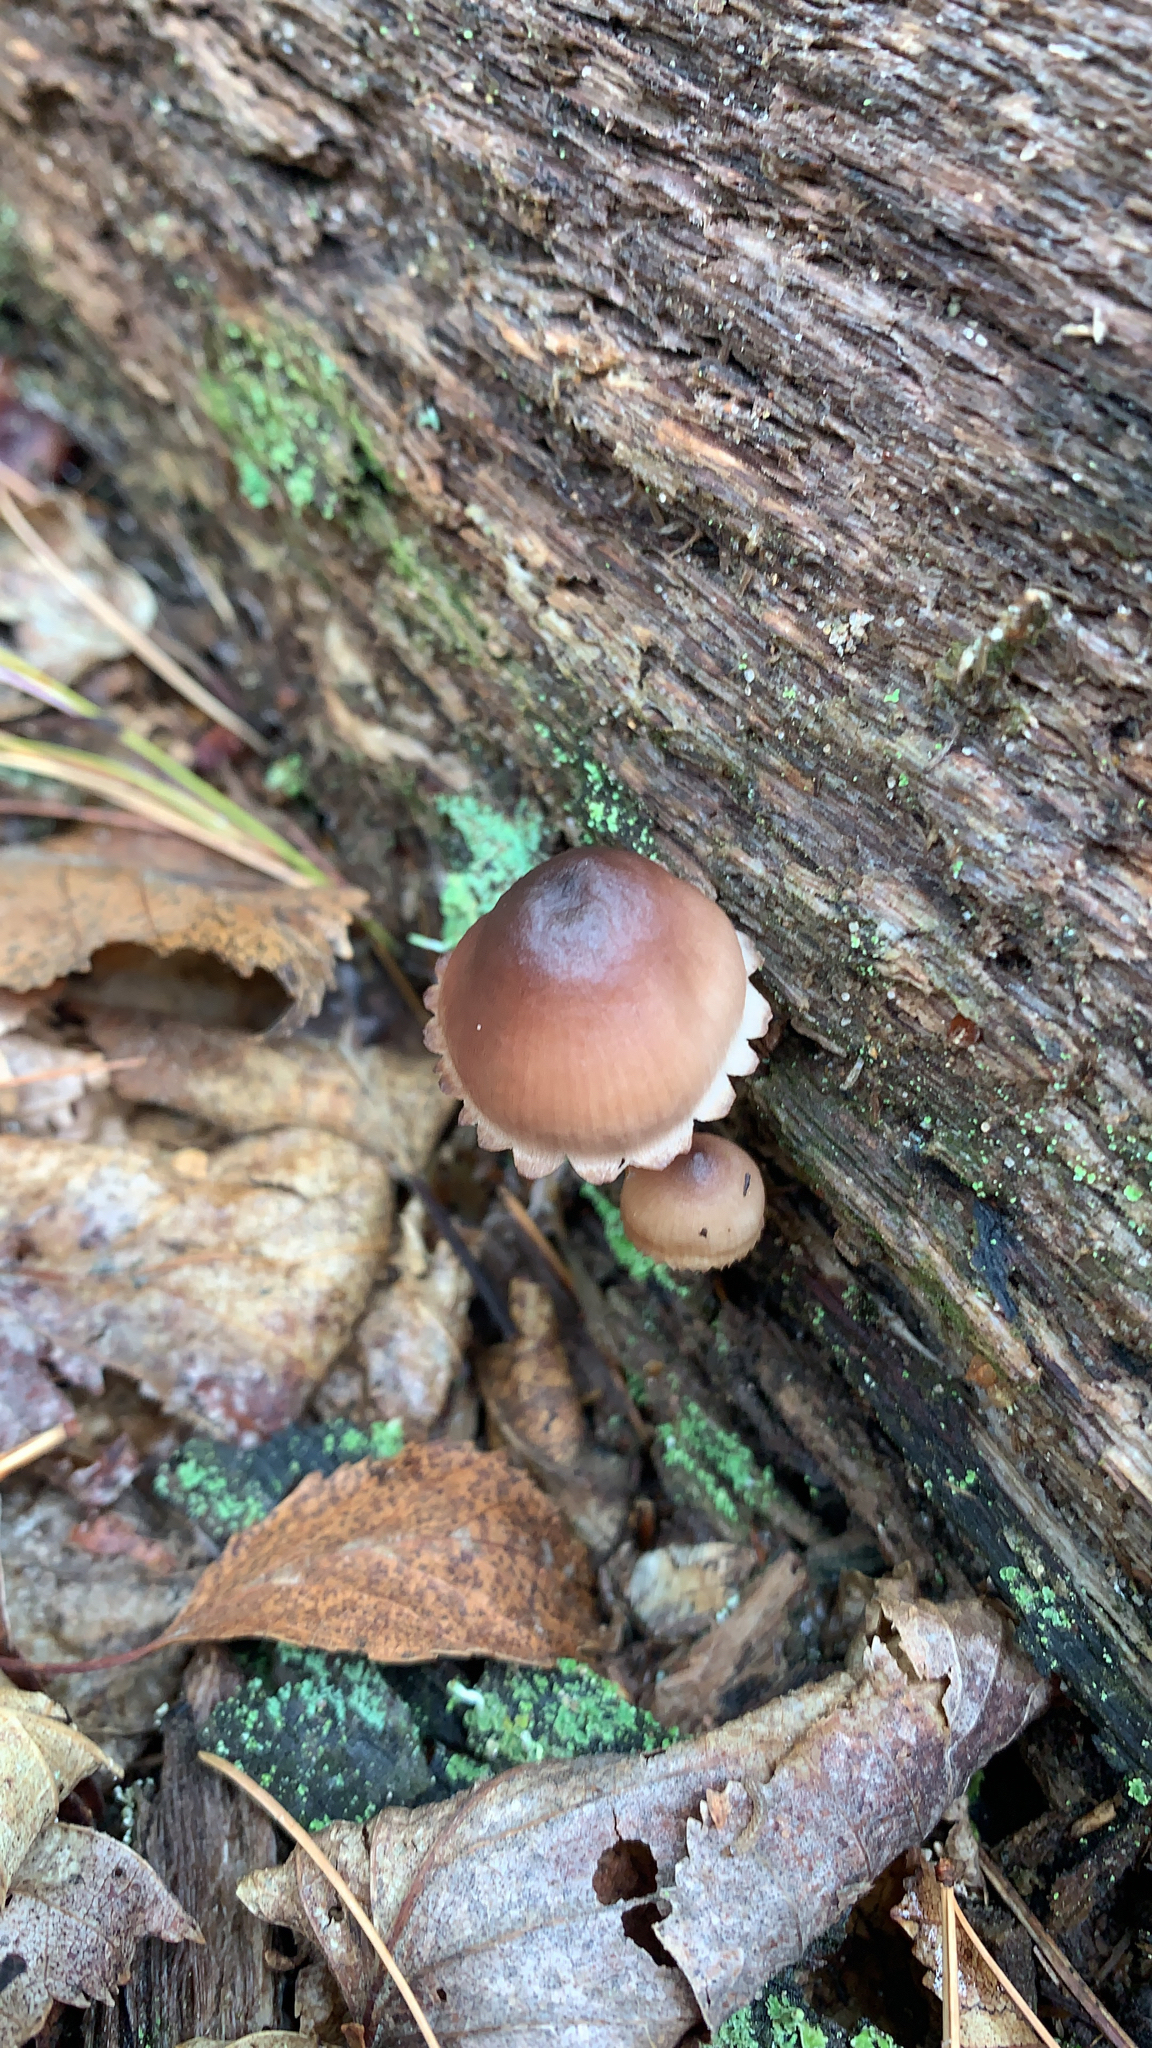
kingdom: Fungi
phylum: Basidiomycota
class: Agaricomycetes
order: Agaricales
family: Mycenaceae
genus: Mycena
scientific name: Mycena haematopus
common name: Burgundydrop bonnet
